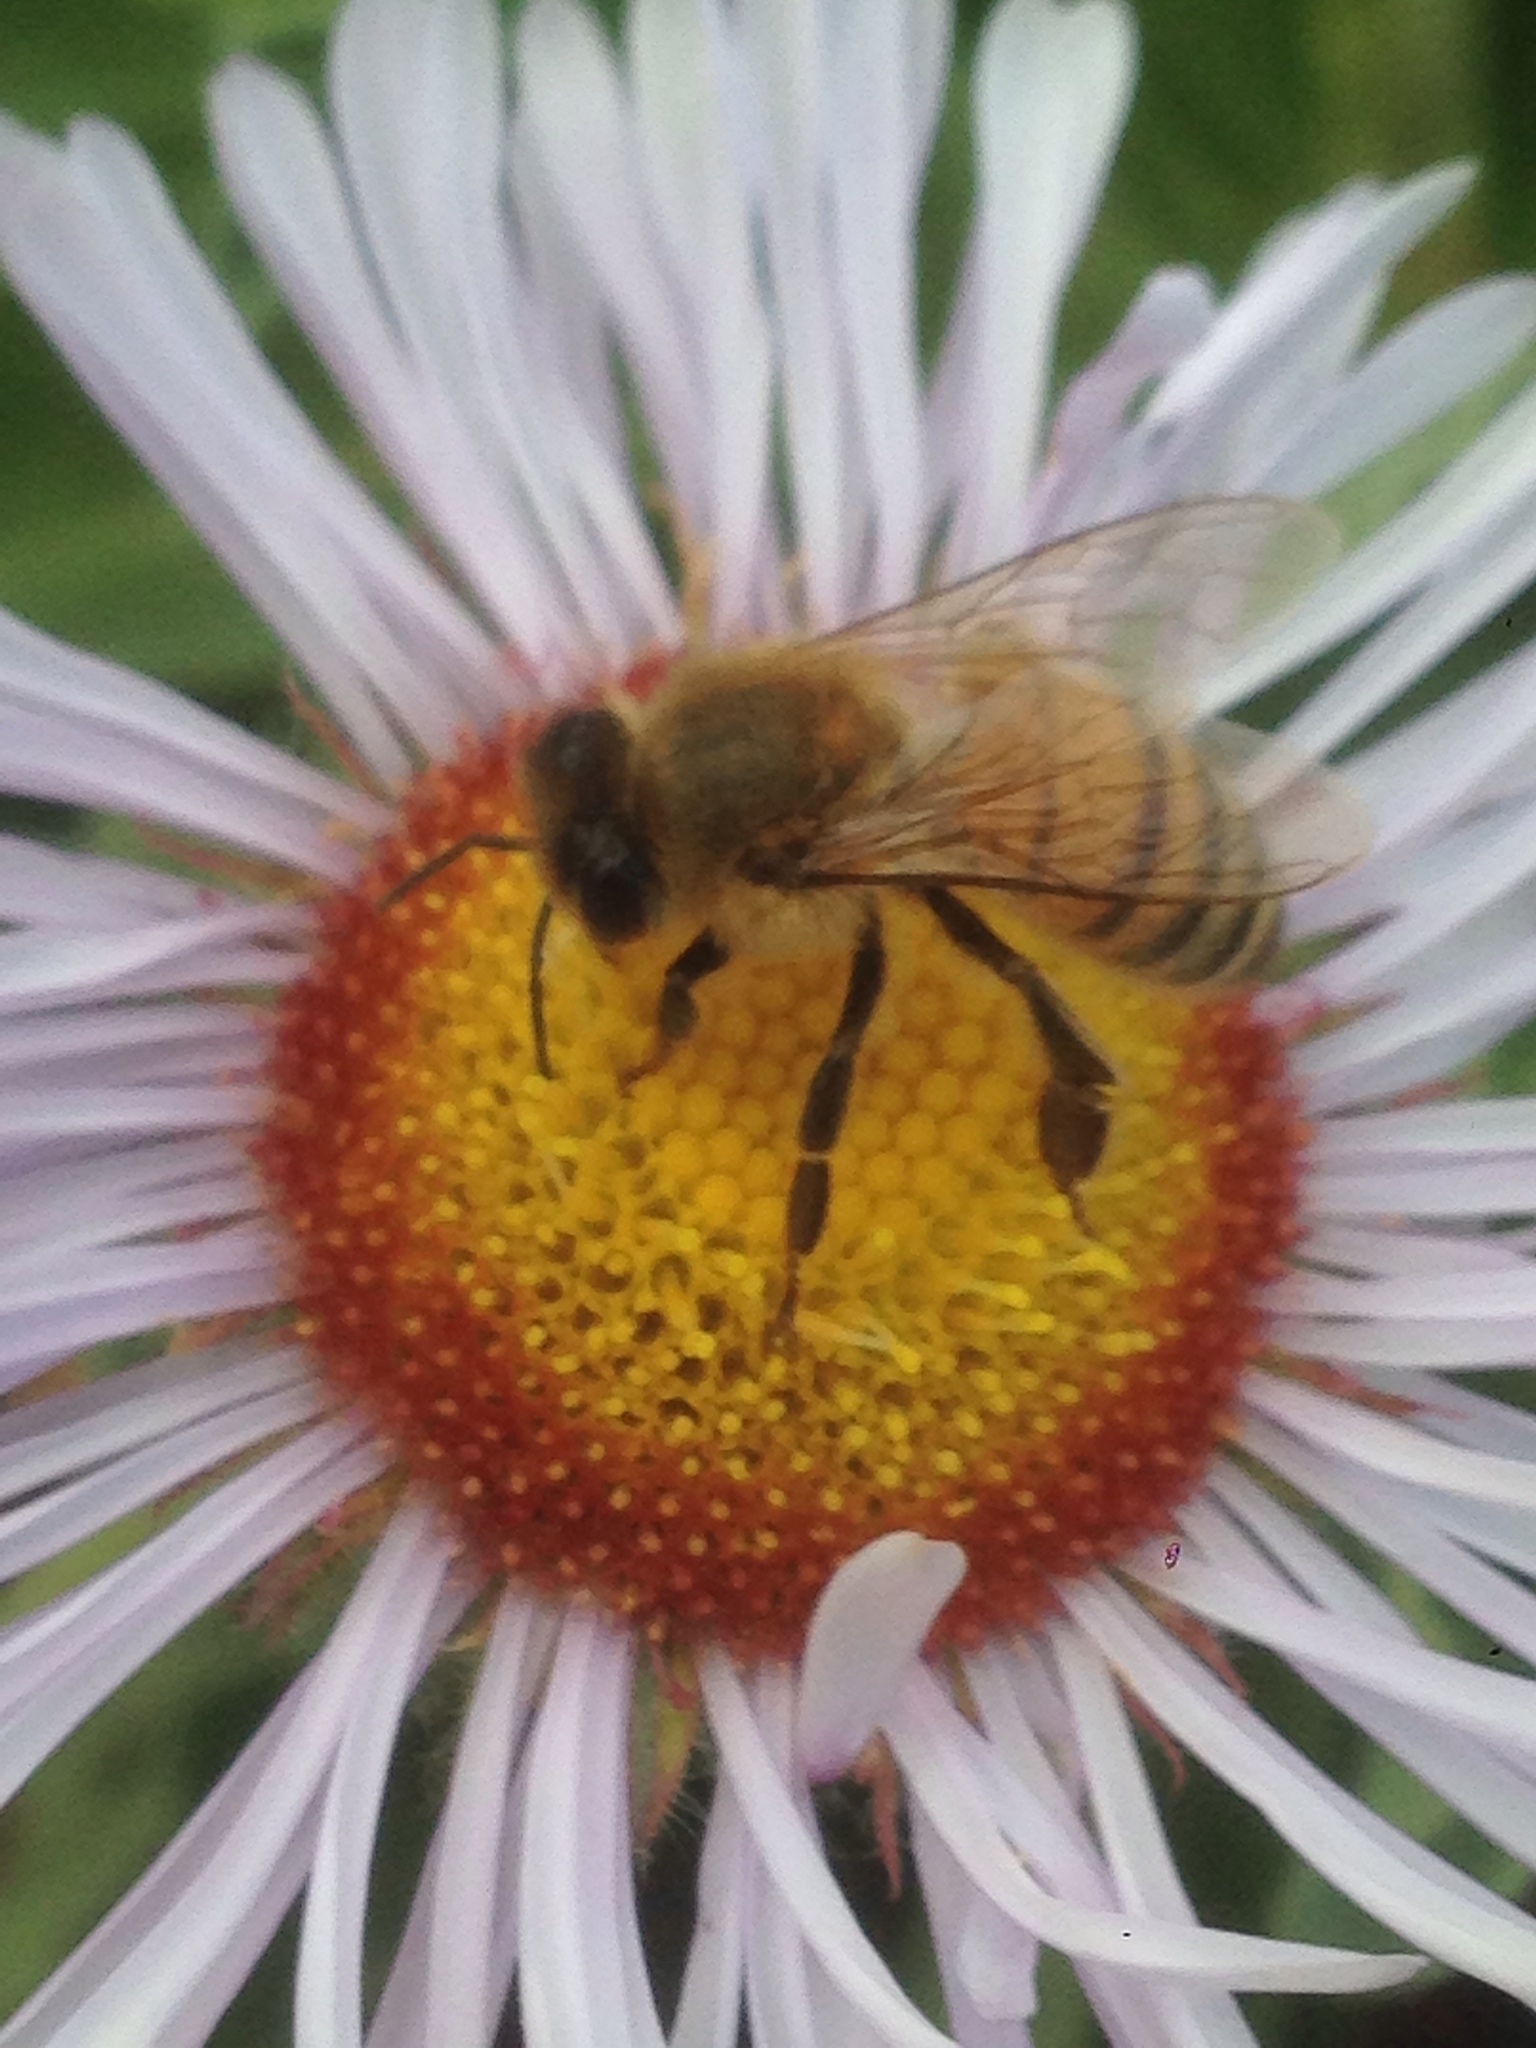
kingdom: Animalia
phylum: Arthropoda
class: Insecta
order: Hymenoptera
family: Apidae
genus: Apis
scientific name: Apis mellifera
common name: Honey bee
